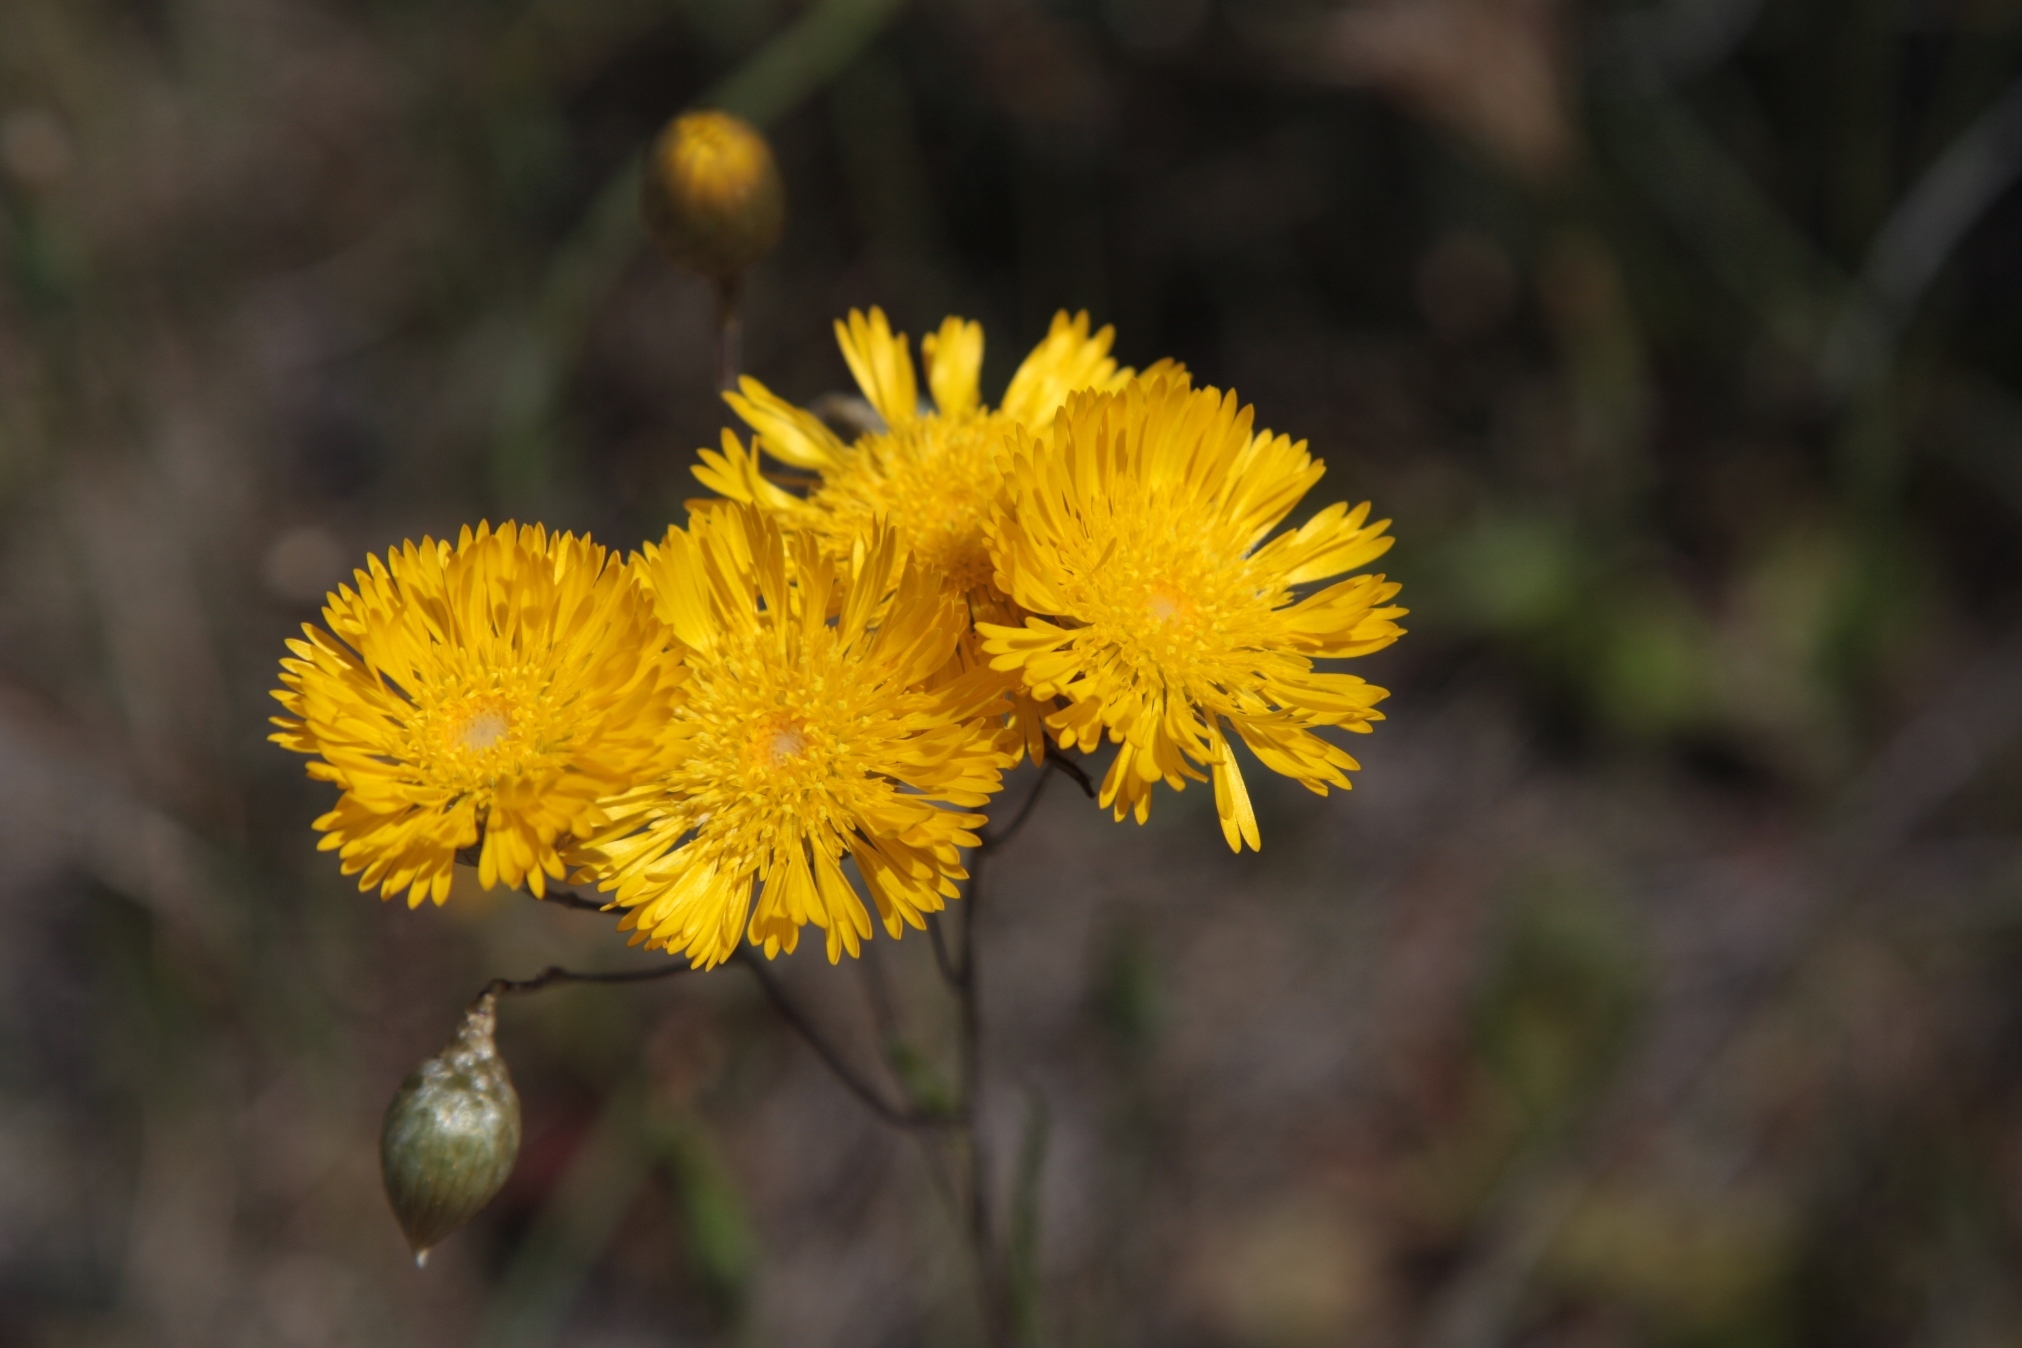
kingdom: Plantae
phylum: Tracheophyta
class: Magnoliopsida
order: Asterales
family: Asteraceae
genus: Podolepis
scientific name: Podolepis aristata
